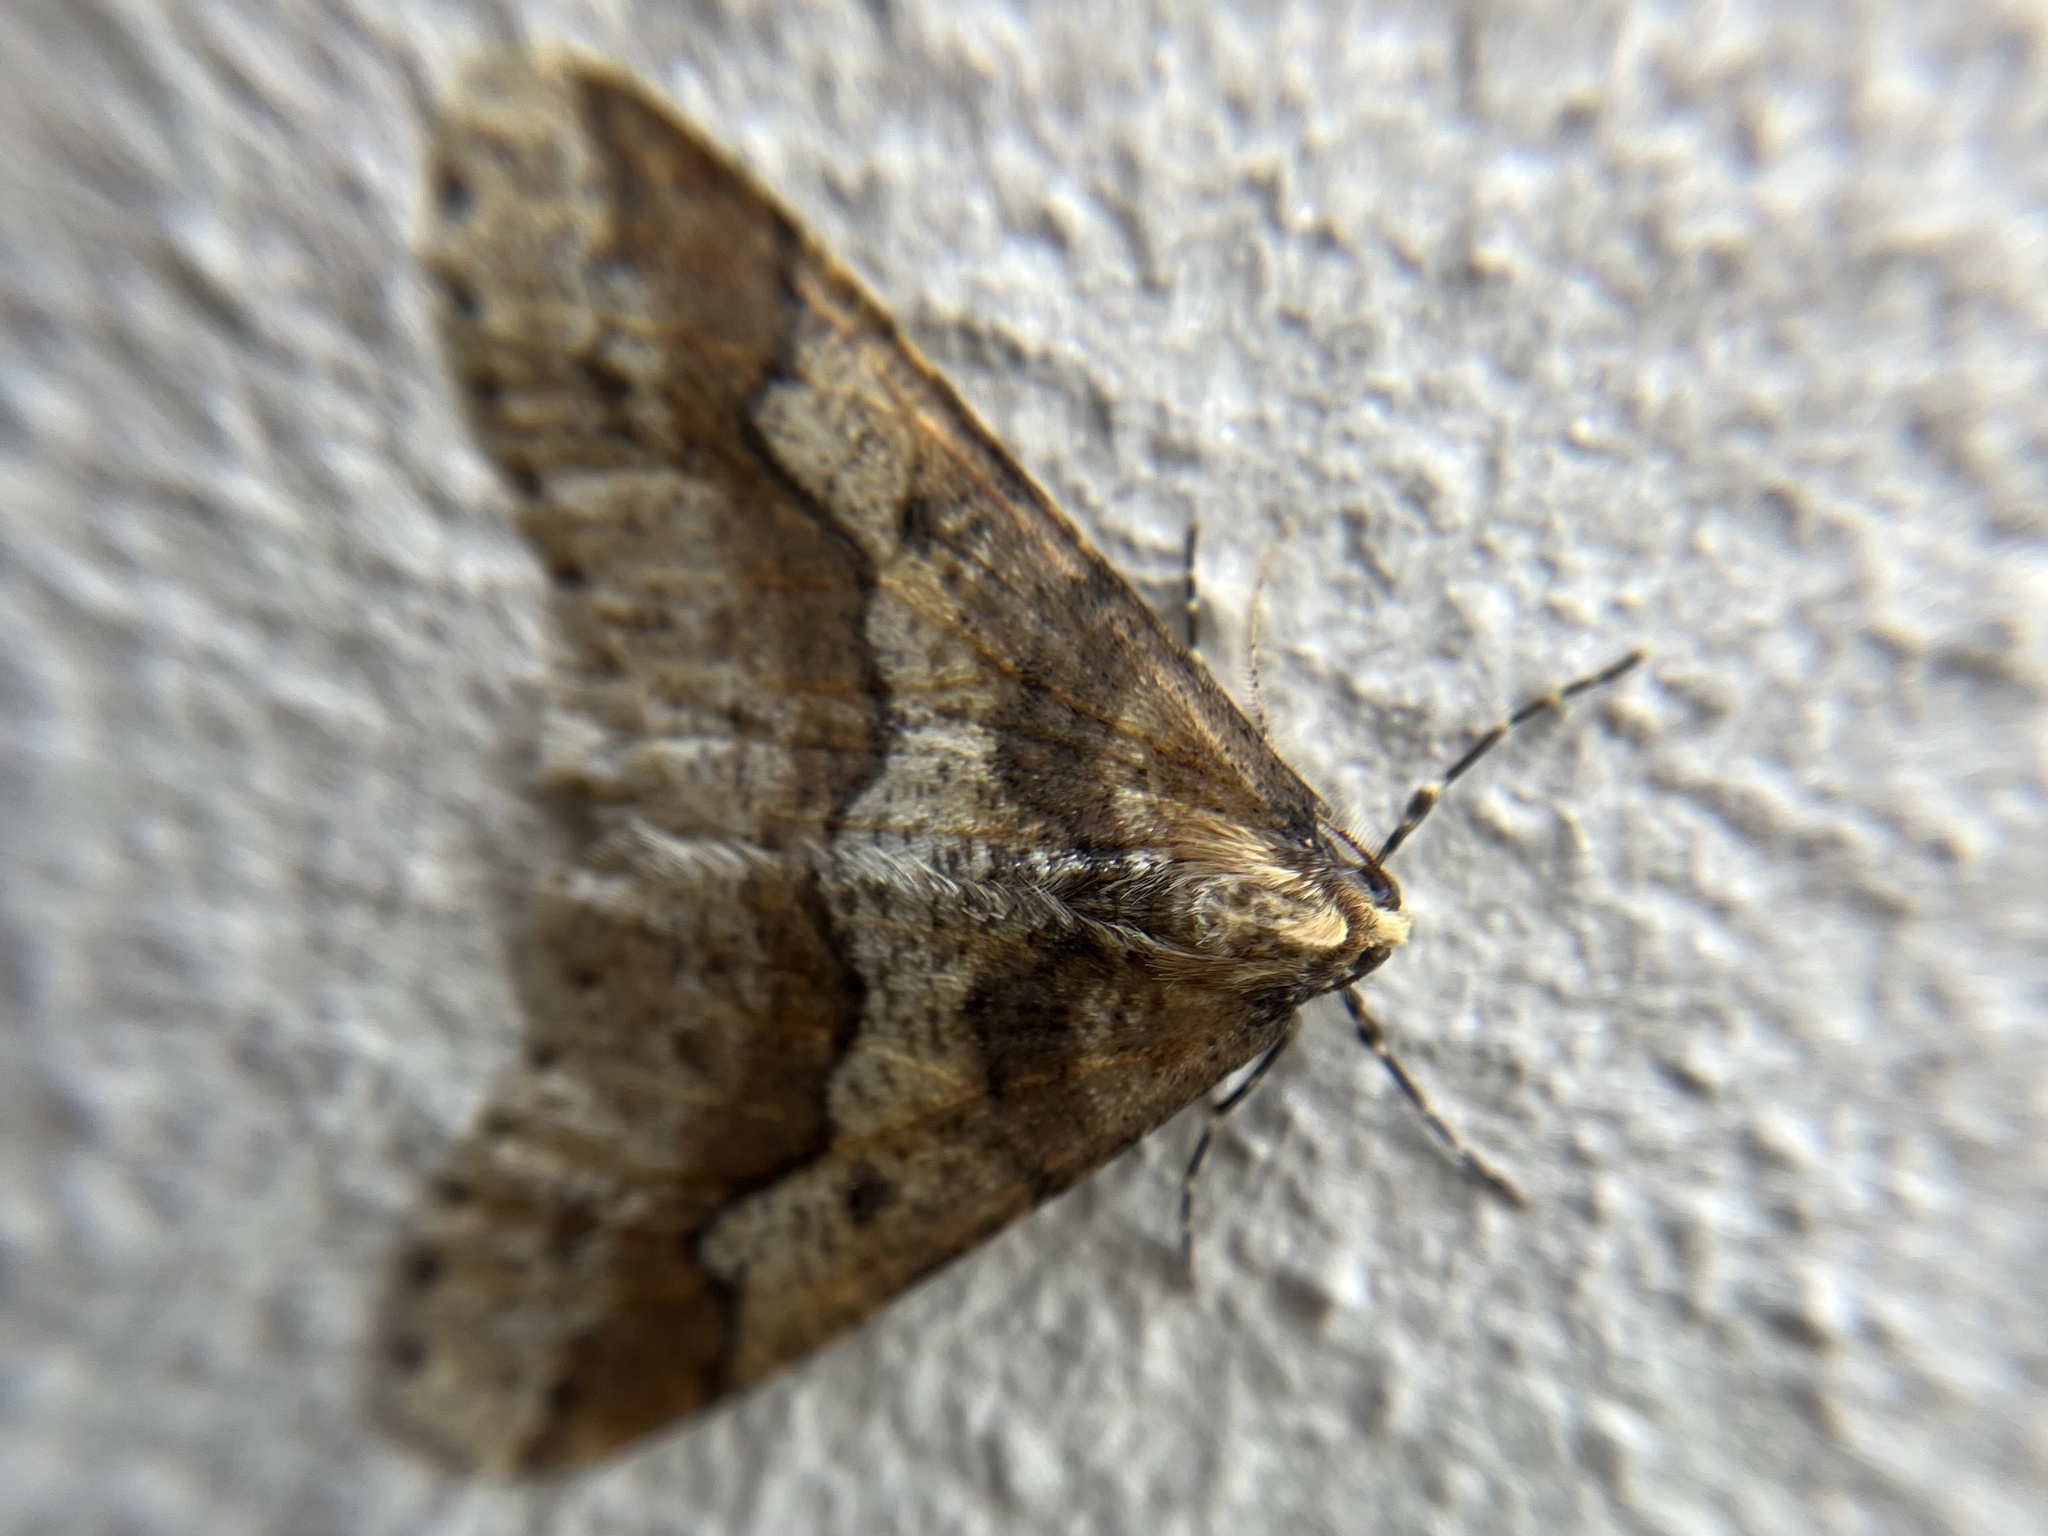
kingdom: Animalia
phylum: Arthropoda
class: Insecta
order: Lepidoptera
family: Geometridae
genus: Erannis
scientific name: Erannis defoliaria
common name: Mottled umber
